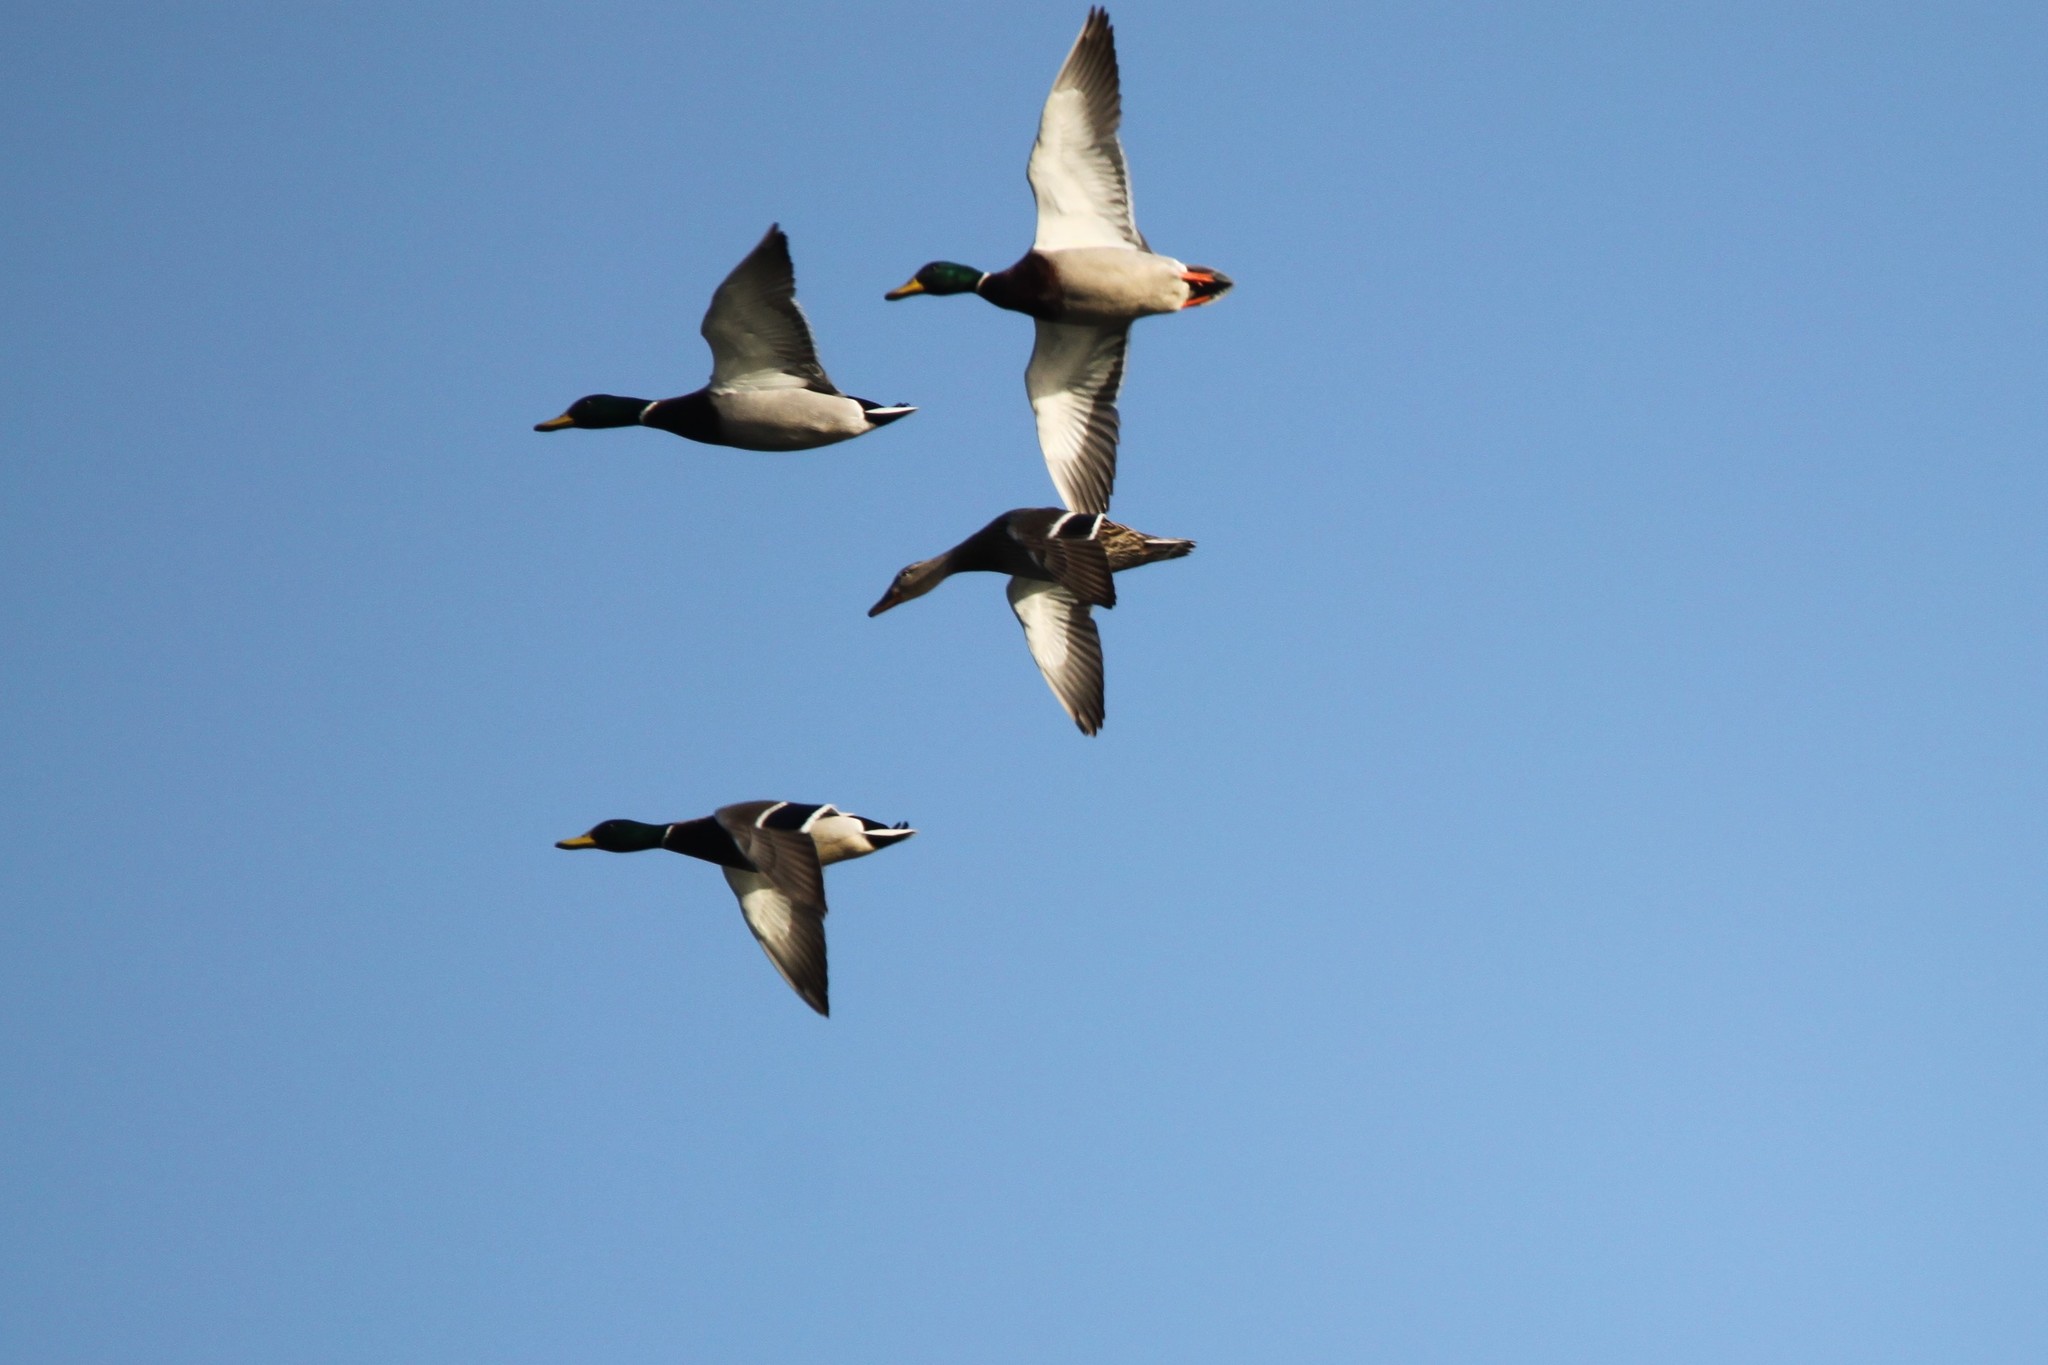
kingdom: Animalia
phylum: Chordata
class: Aves
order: Anseriformes
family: Anatidae
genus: Anas
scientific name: Anas platyrhynchos
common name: Mallard
